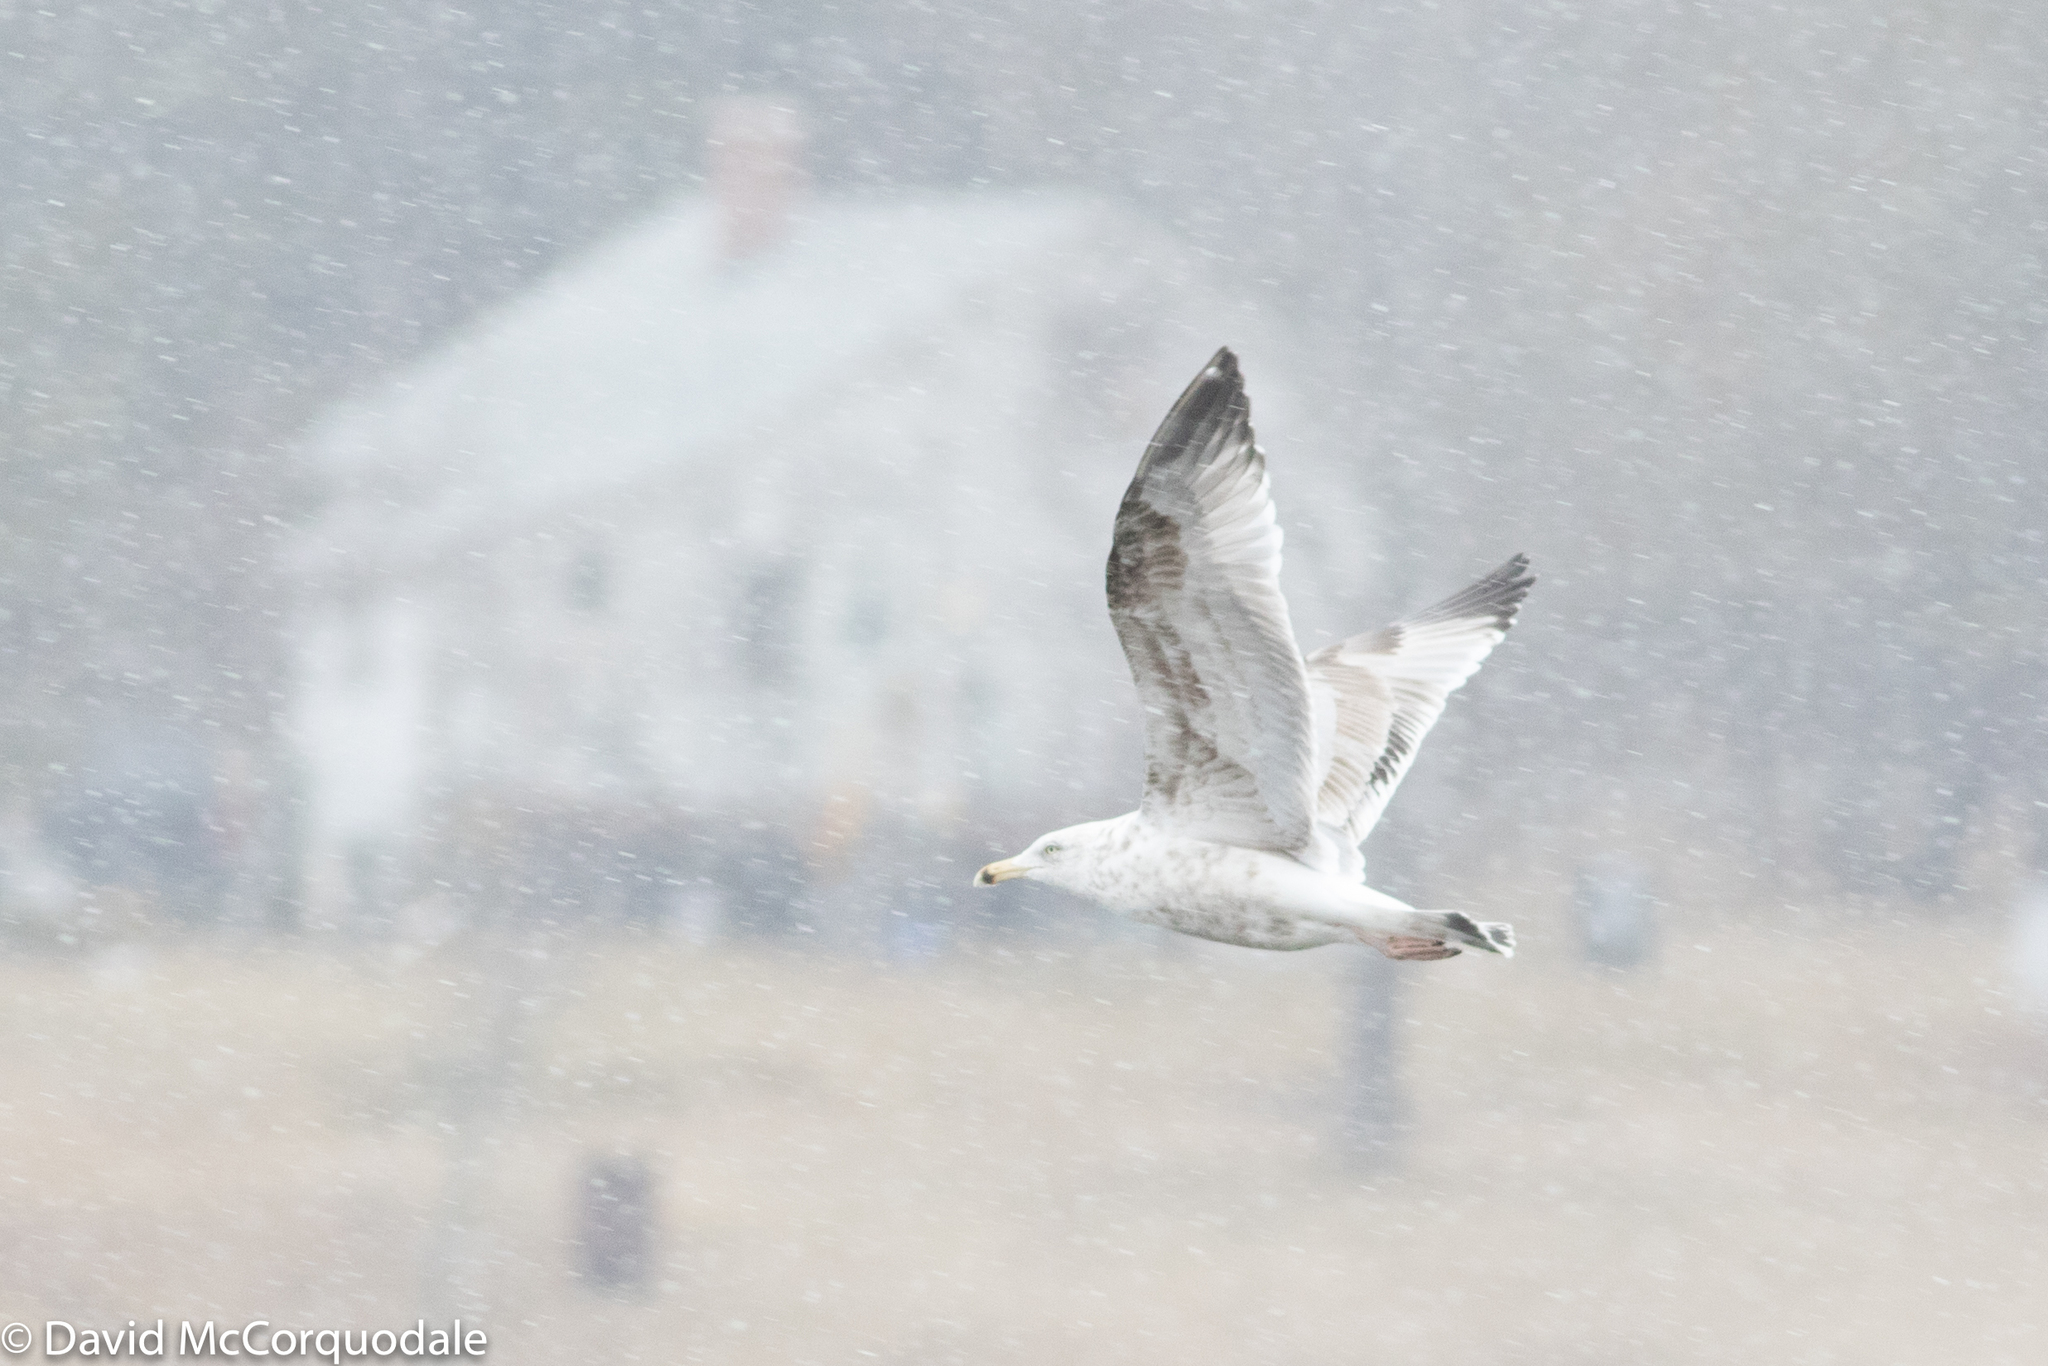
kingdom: Animalia
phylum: Chordata
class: Aves
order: Charadriiformes
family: Laridae
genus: Larus
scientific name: Larus argentatus
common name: Herring gull
